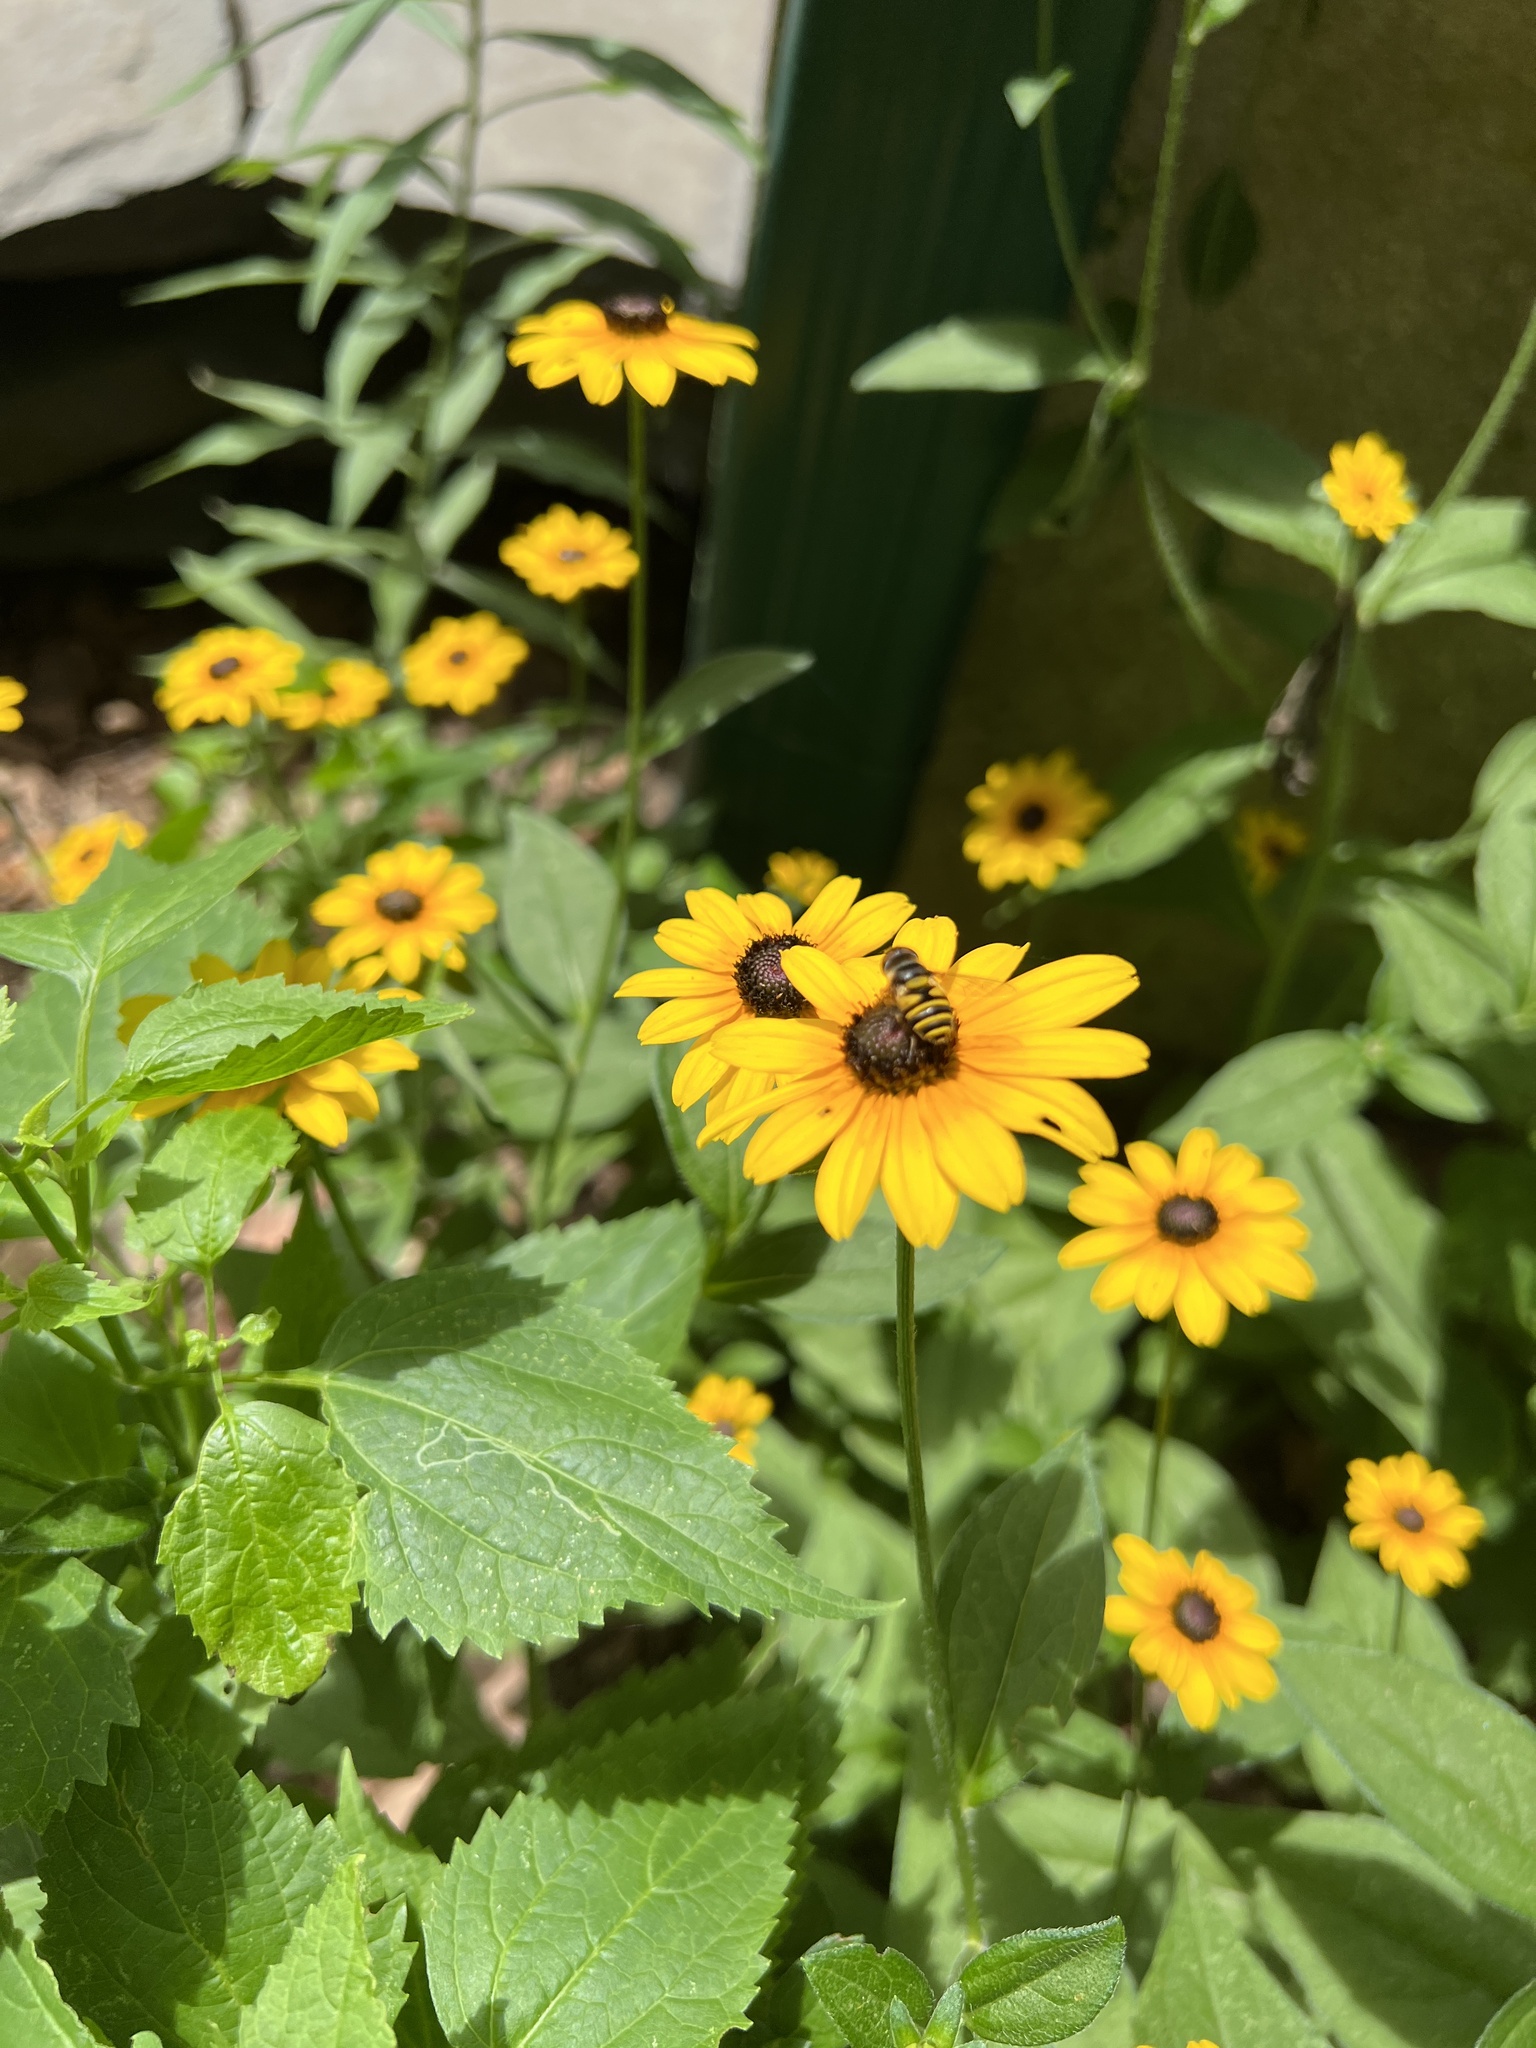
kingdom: Animalia
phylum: Arthropoda
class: Insecta
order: Diptera
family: Syrphidae
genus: Eristalis
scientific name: Eristalis transversa
